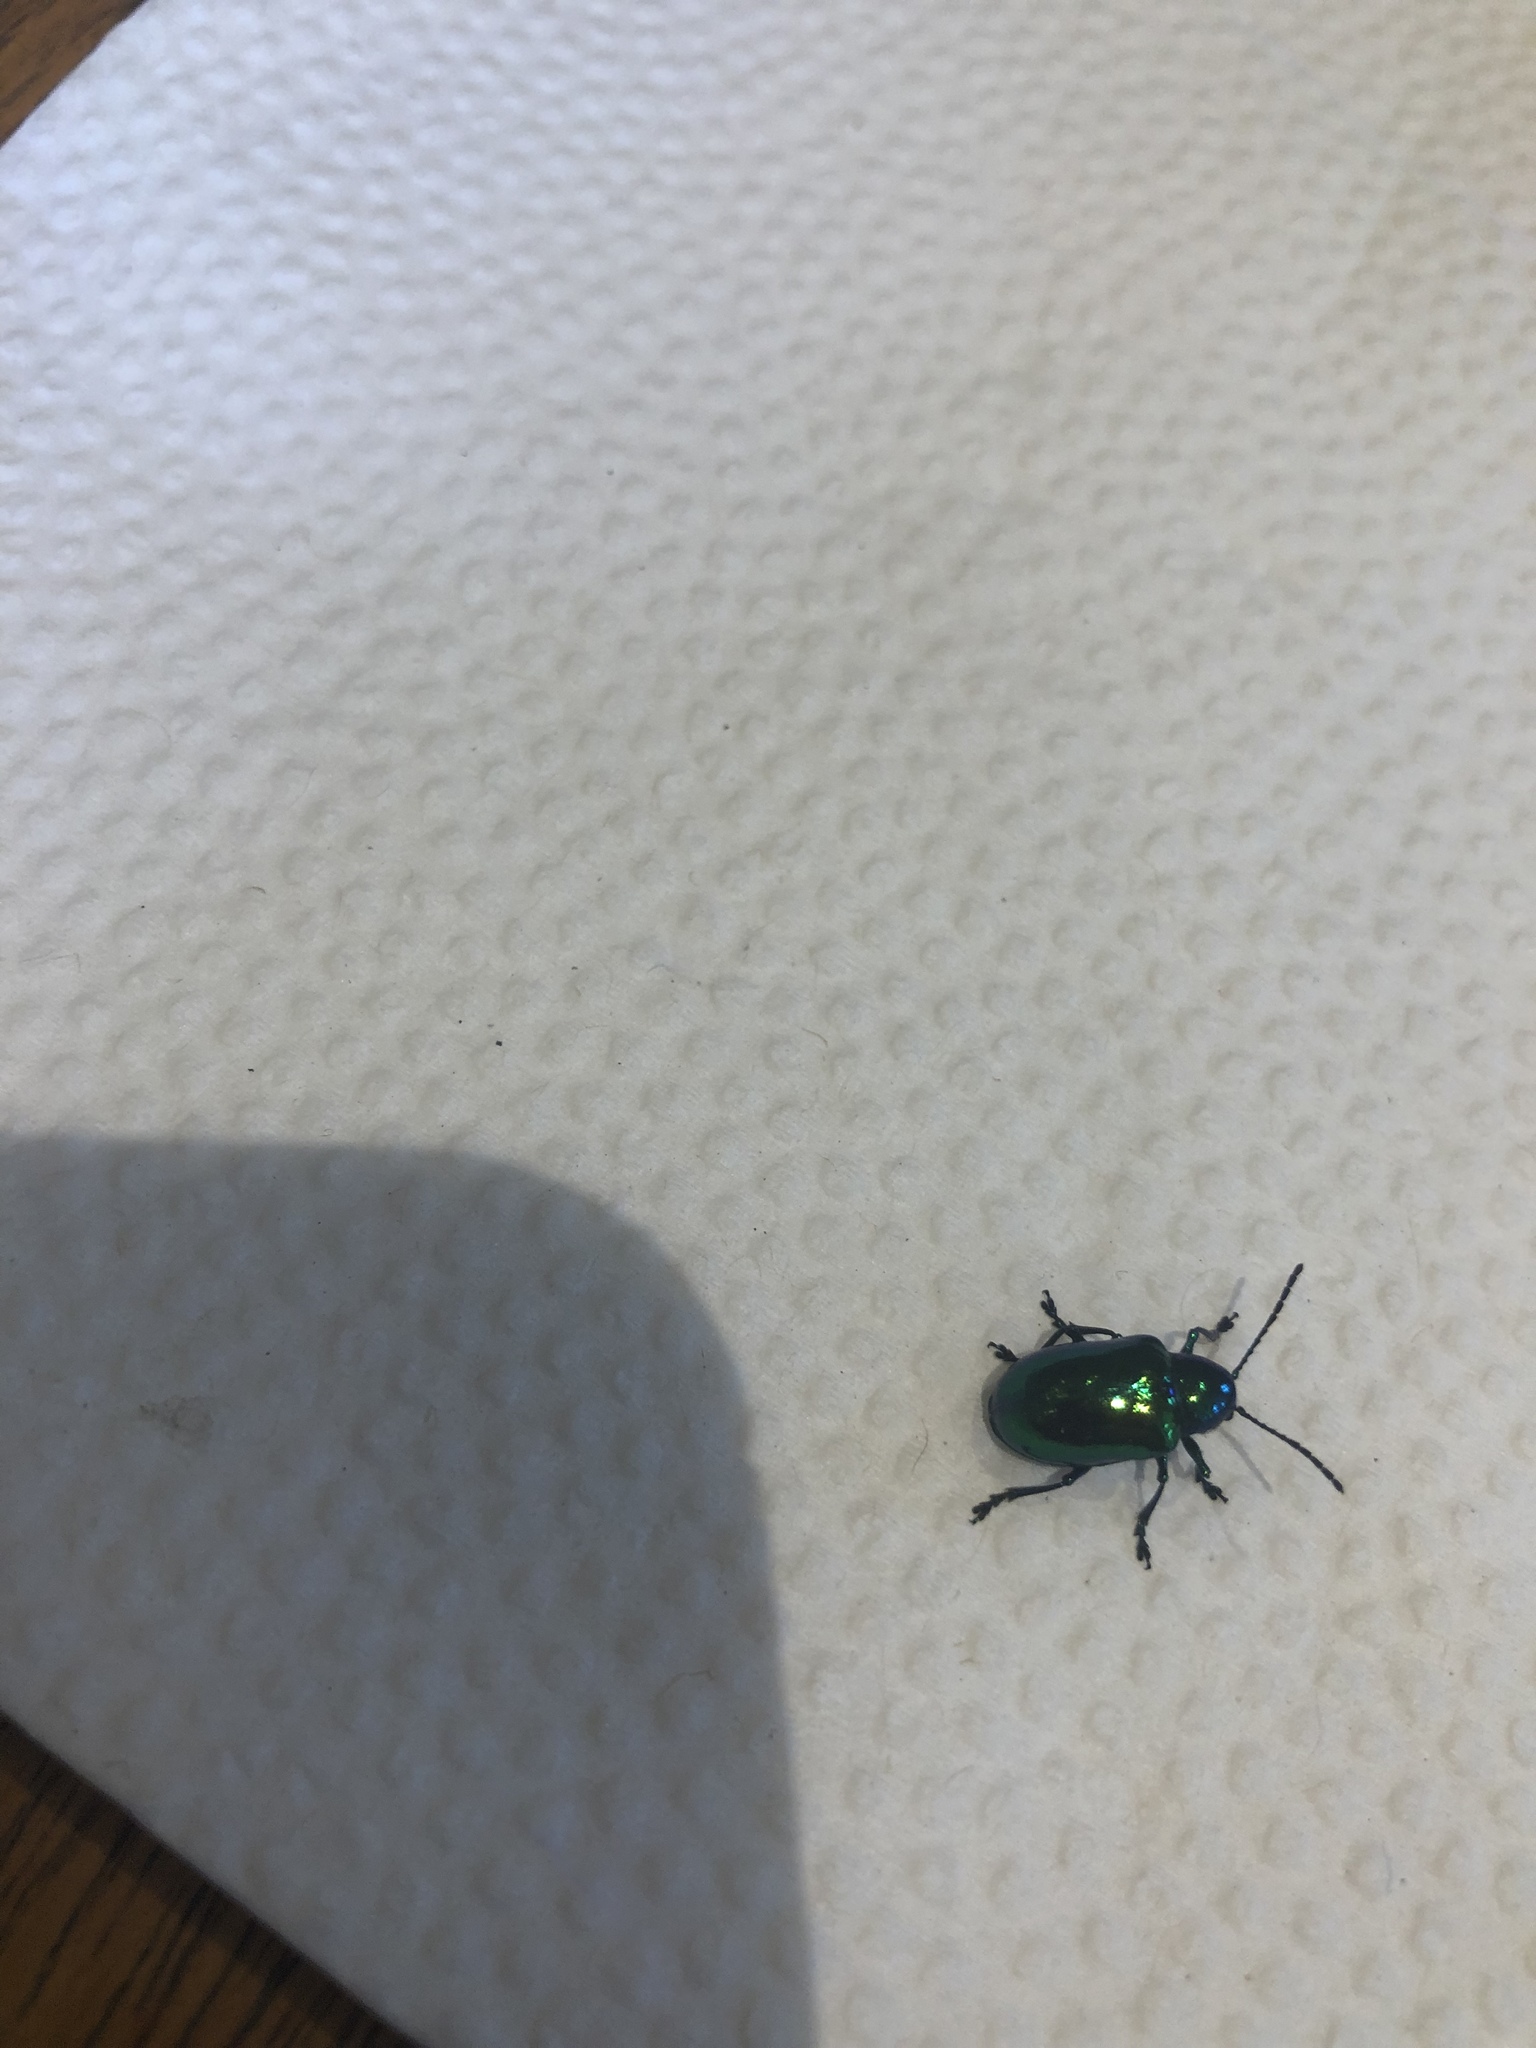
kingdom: Animalia
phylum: Arthropoda
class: Insecta
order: Coleoptera
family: Chrysomelidae
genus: Chrysochus
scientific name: Chrysochus auratus
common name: Dogbane leaf beetle
